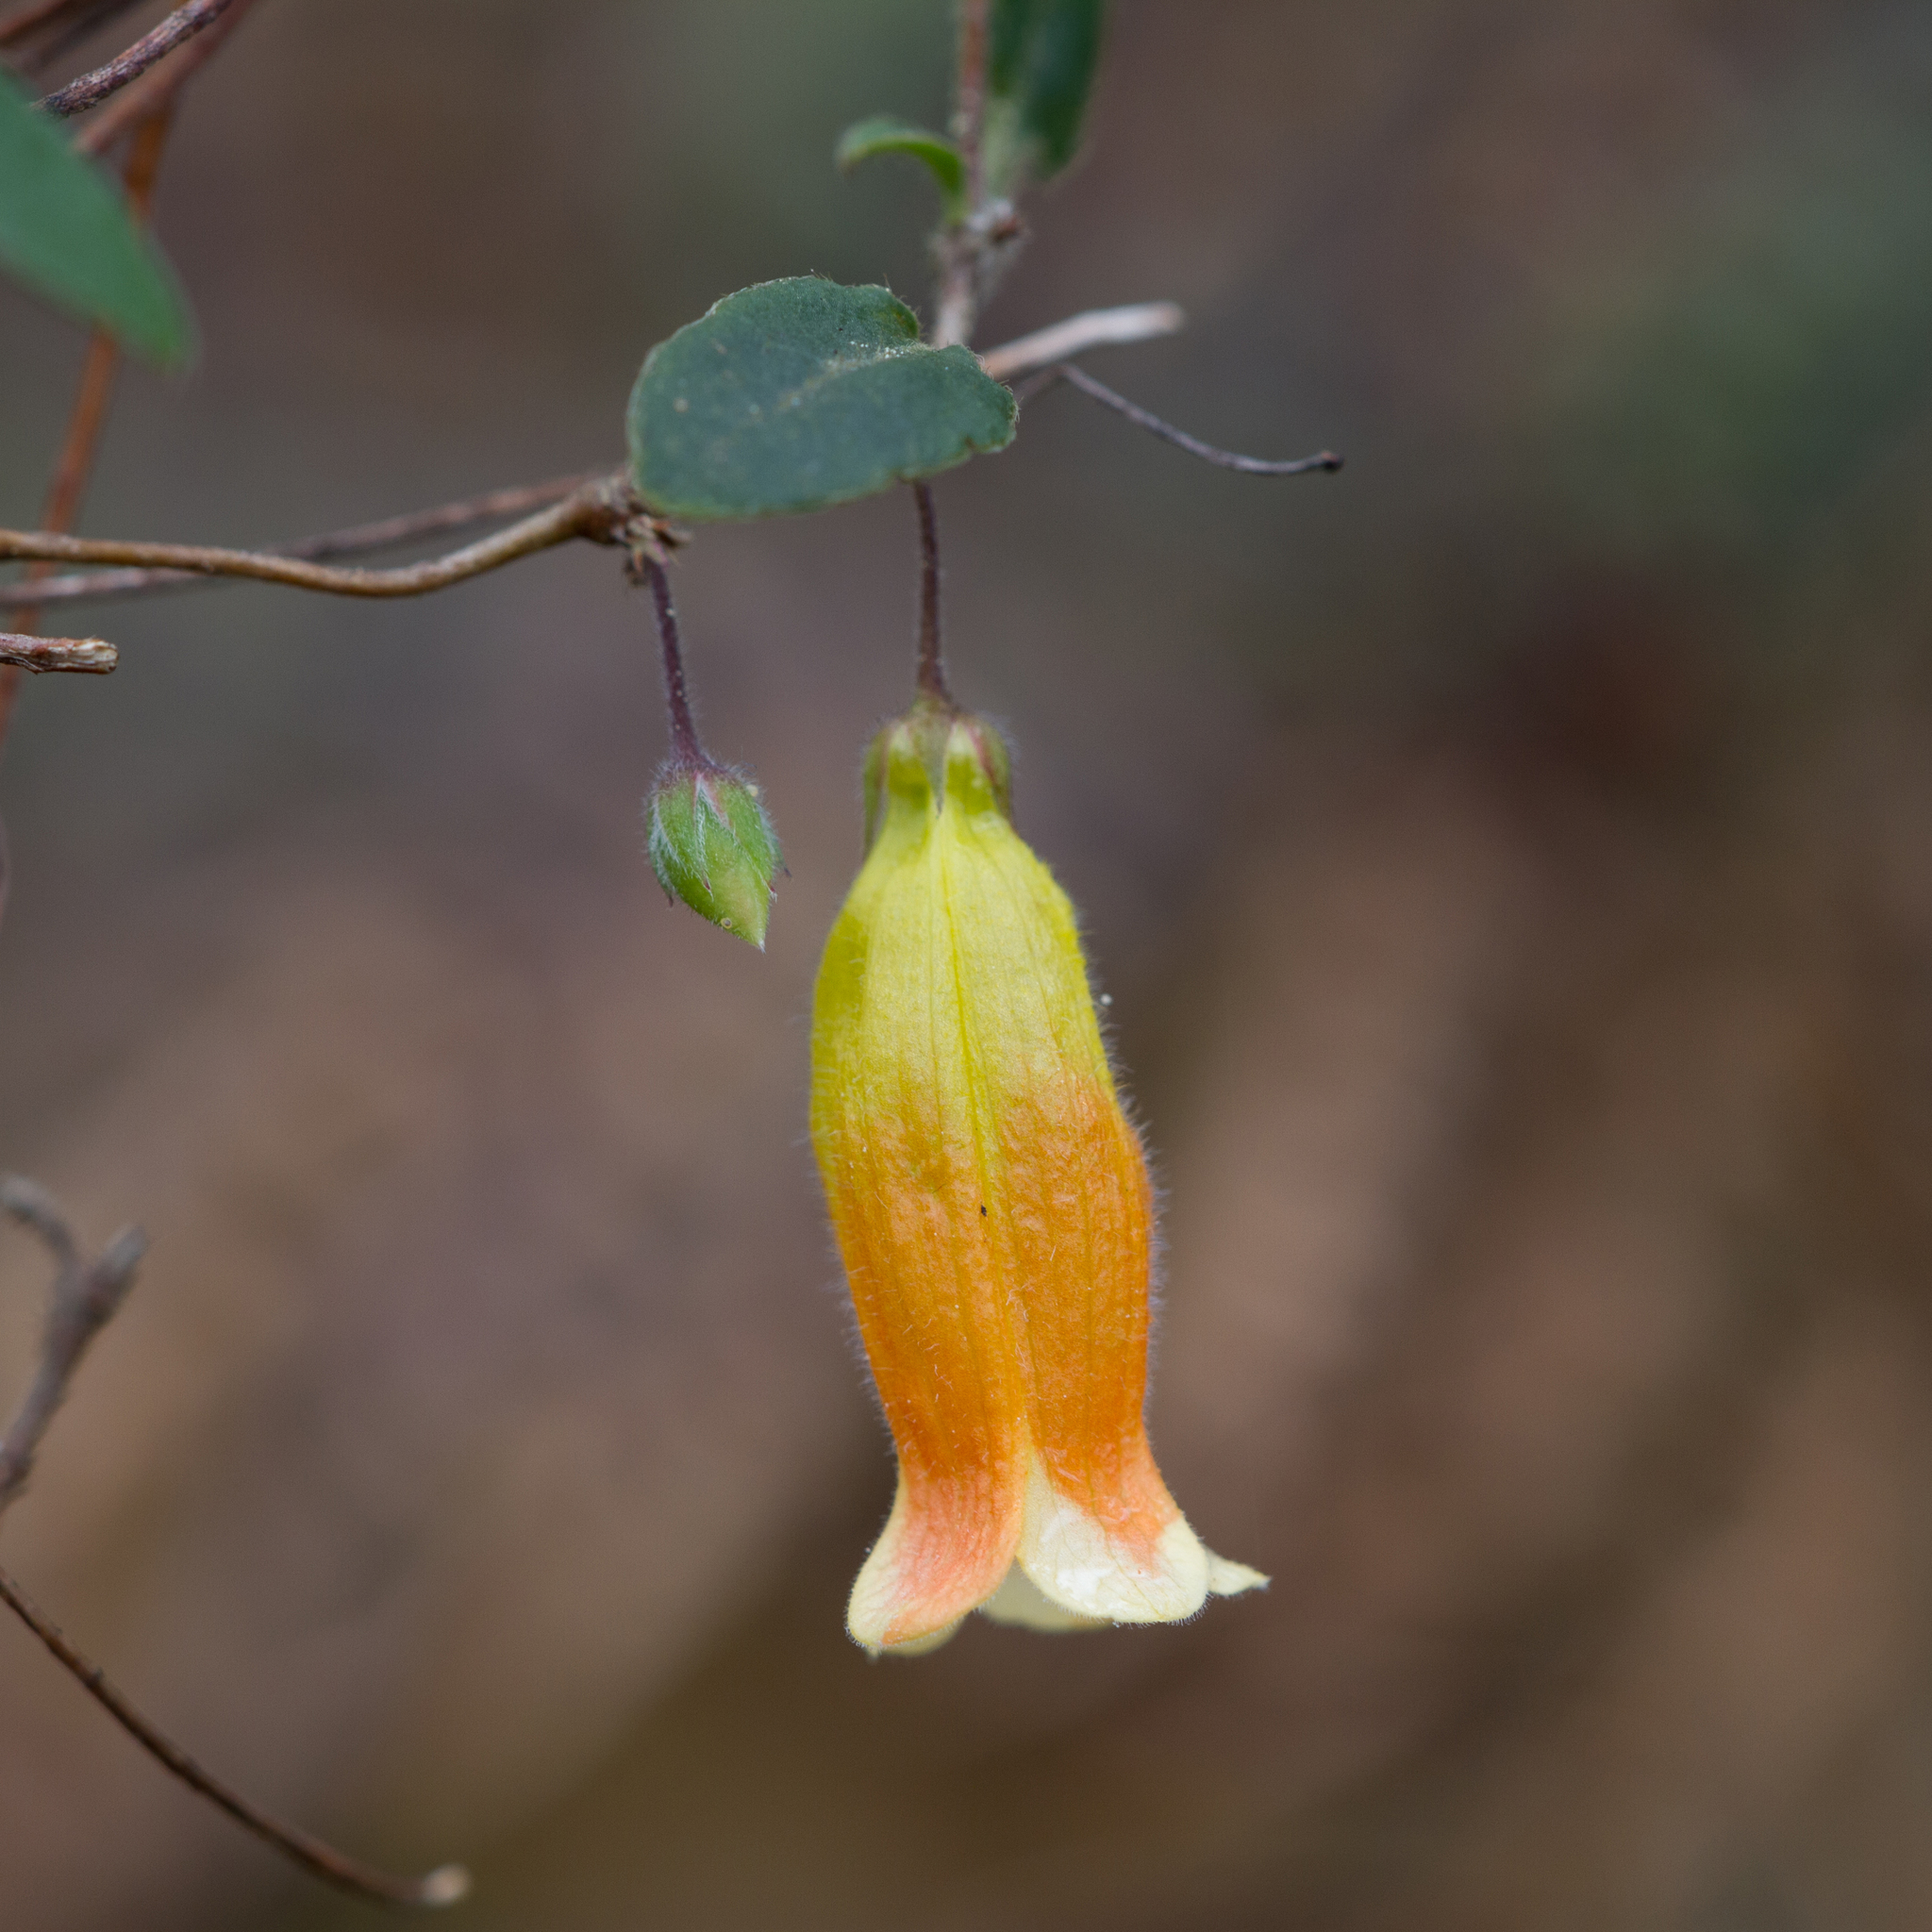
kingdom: Plantae
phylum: Tracheophyta
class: Magnoliopsida
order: Apiales
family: Pittosporaceae
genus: Marianthus
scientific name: Marianthus bignoniaceus
